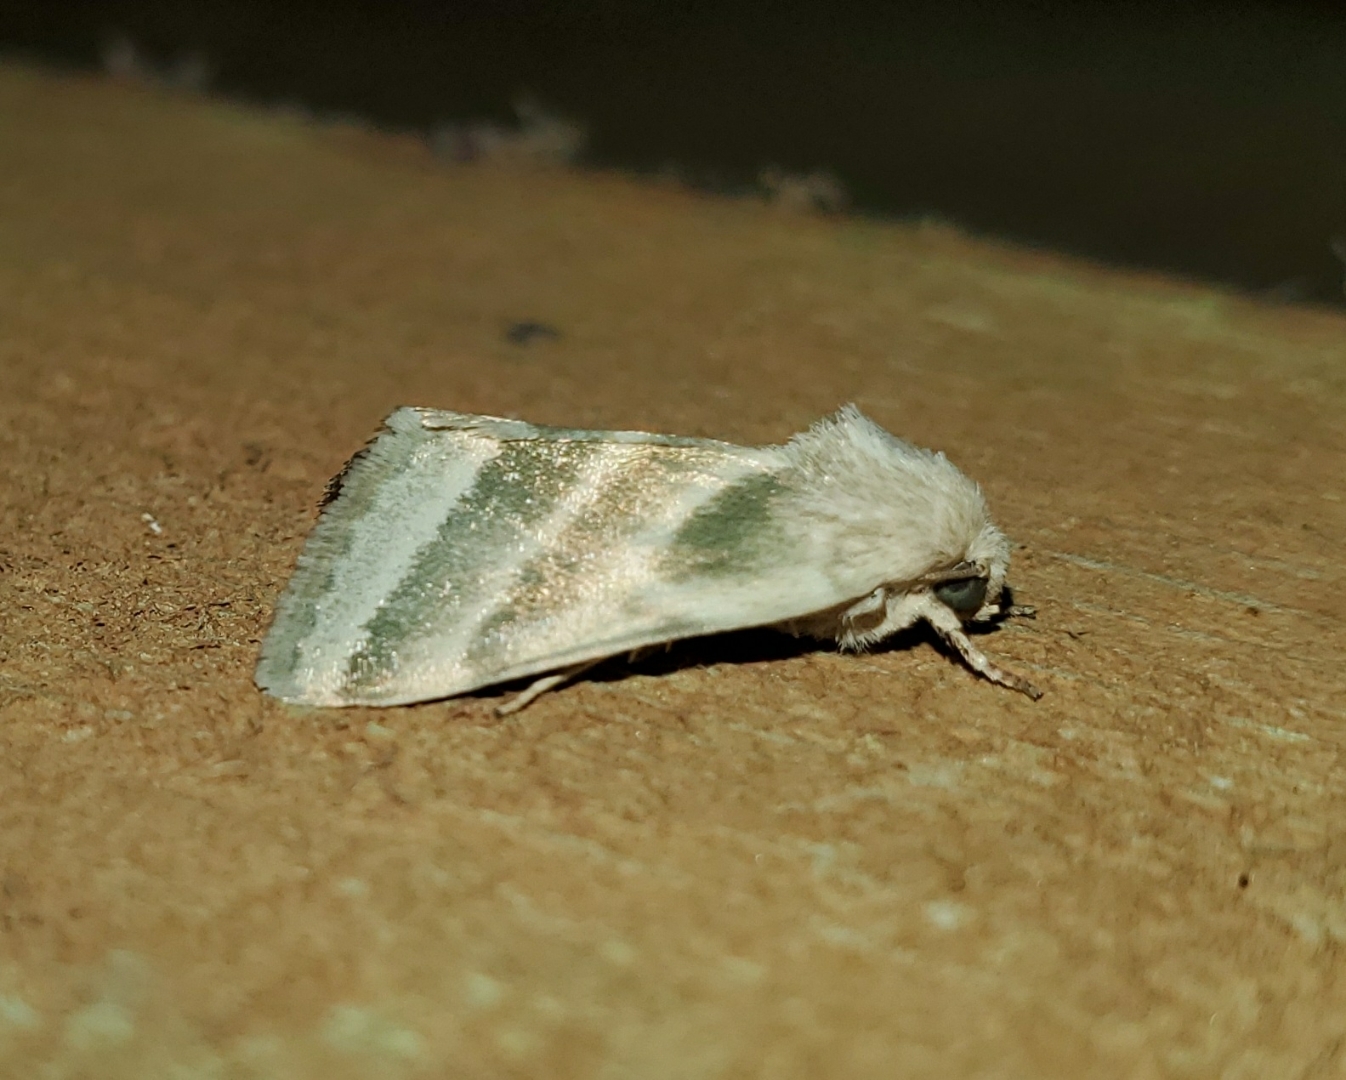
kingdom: Animalia
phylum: Arthropoda
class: Insecta
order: Lepidoptera
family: Noctuidae
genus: Schinia
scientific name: Schinia trifascia
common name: Three-lined flower moth
